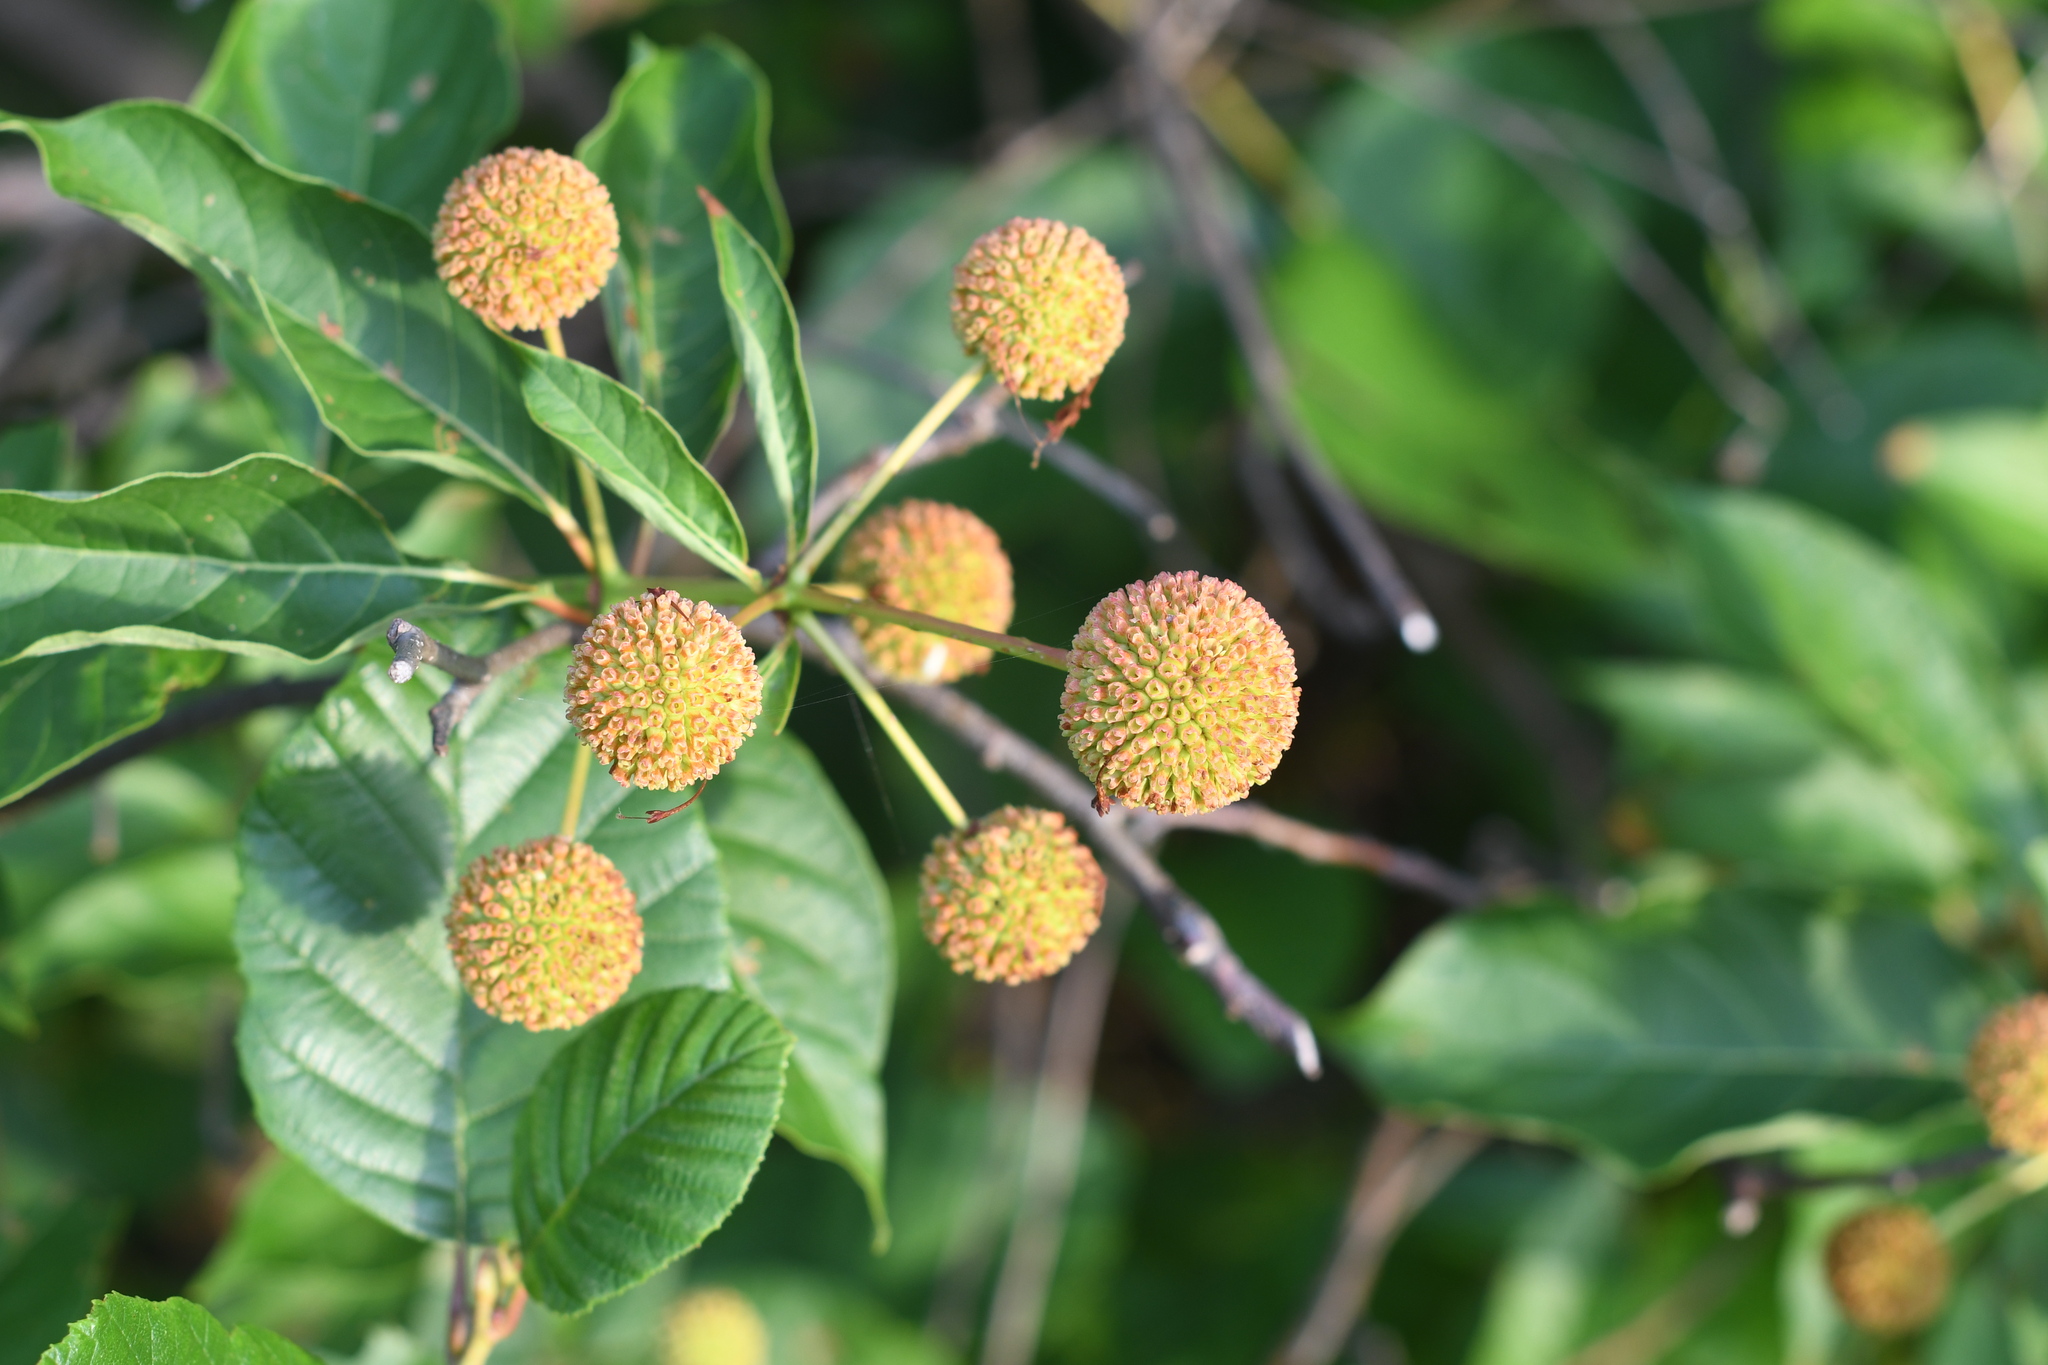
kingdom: Plantae
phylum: Tracheophyta
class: Magnoliopsida
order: Gentianales
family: Rubiaceae
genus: Cephalanthus
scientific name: Cephalanthus occidentalis
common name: Button-willow
